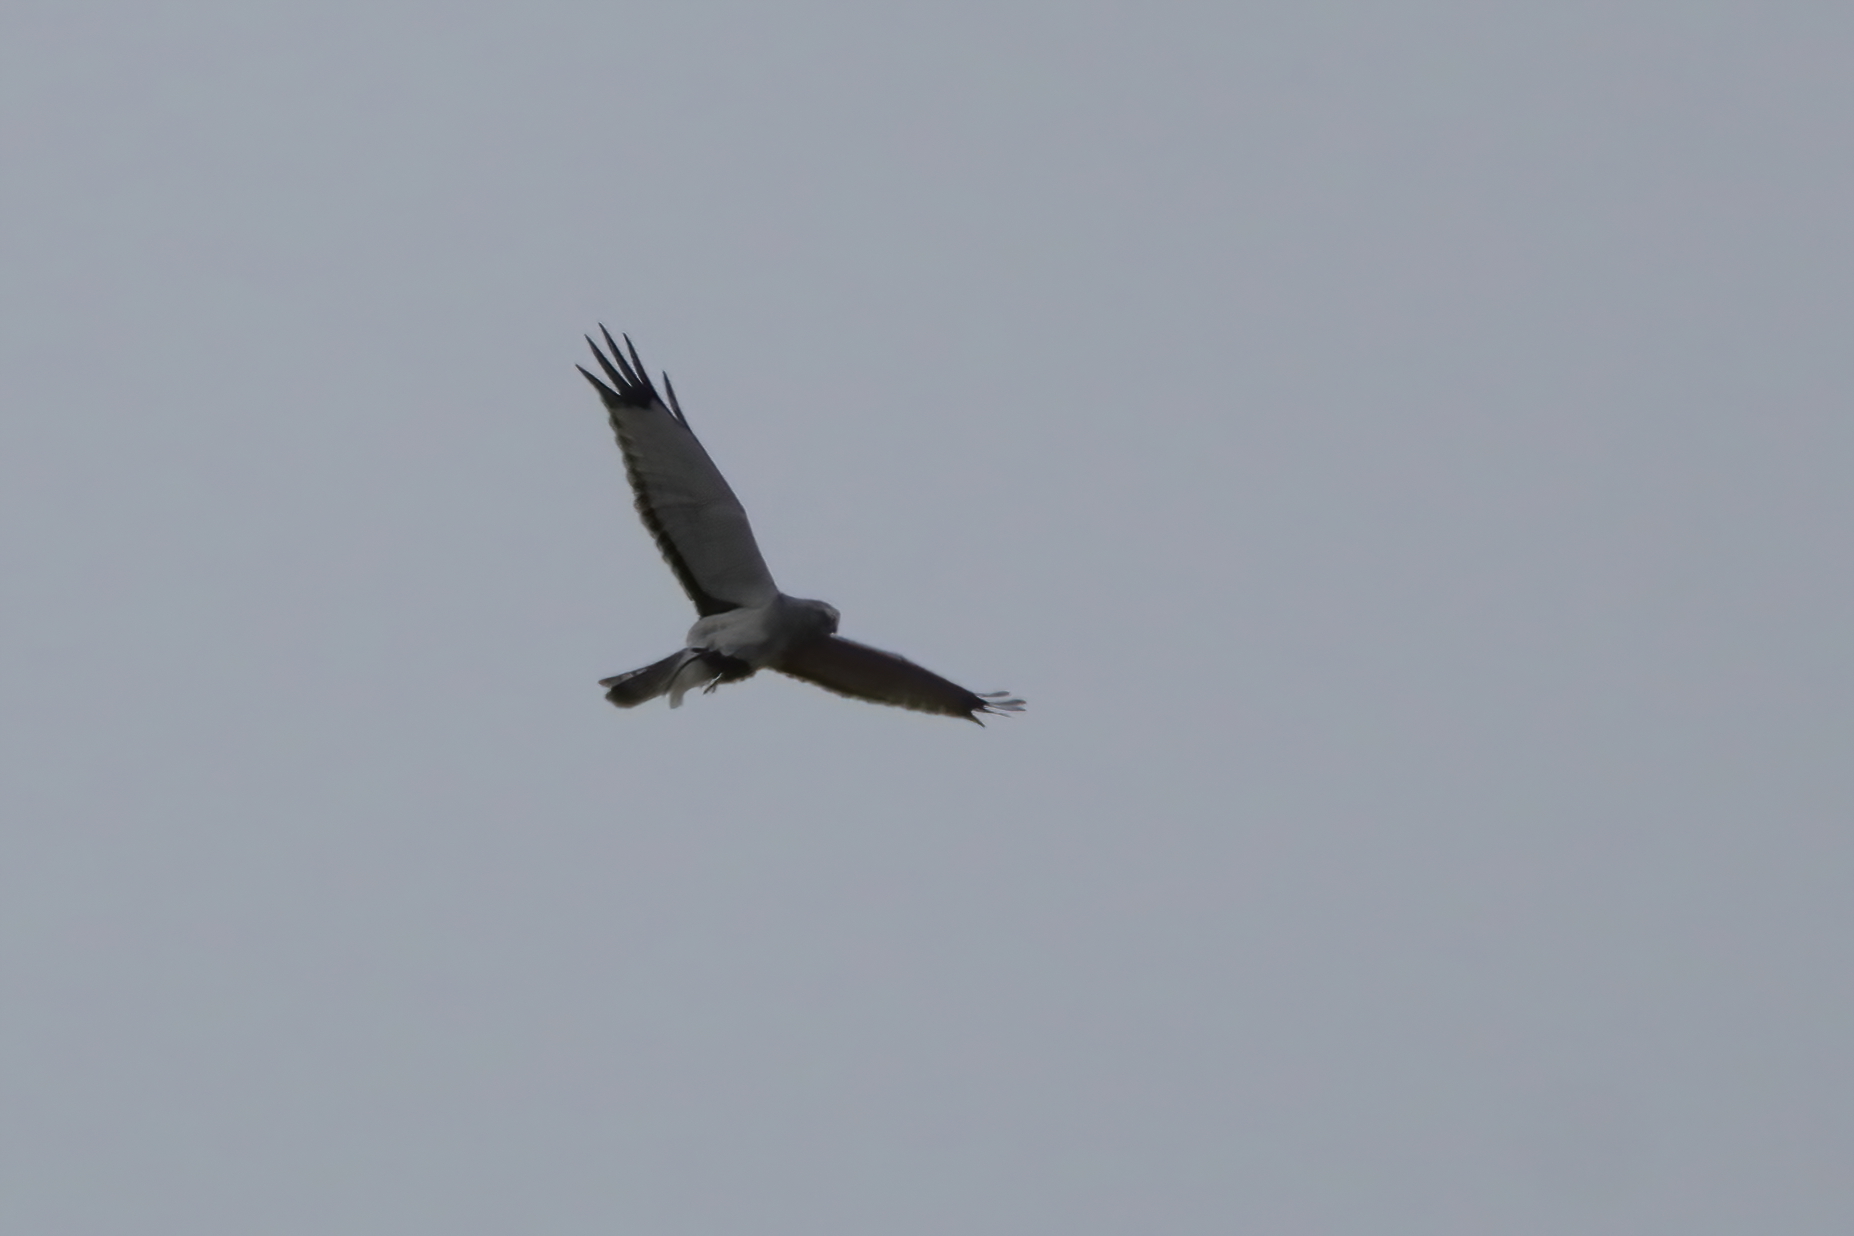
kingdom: Animalia
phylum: Chordata
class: Aves
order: Accipitriformes
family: Accipitridae
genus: Circus
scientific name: Circus cyaneus
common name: Hen harrier
